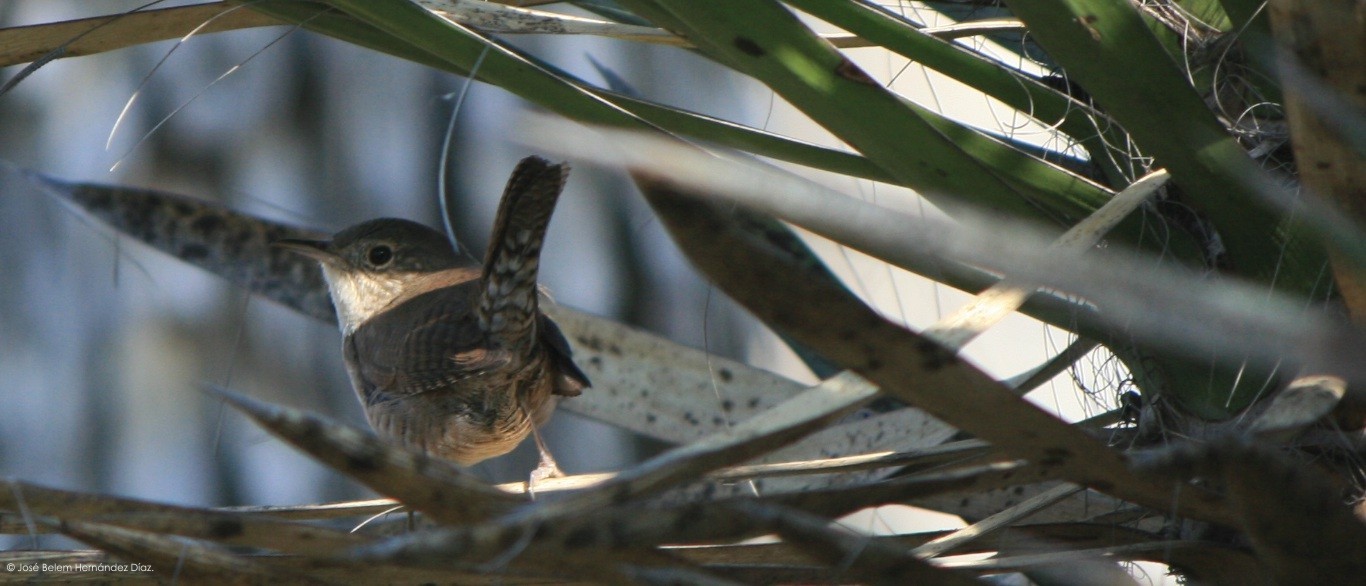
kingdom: Animalia
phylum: Chordata
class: Aves
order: Passeriformes
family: Troglodytidae
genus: Troglodytes
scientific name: Troglodytes aedon
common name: House wren
